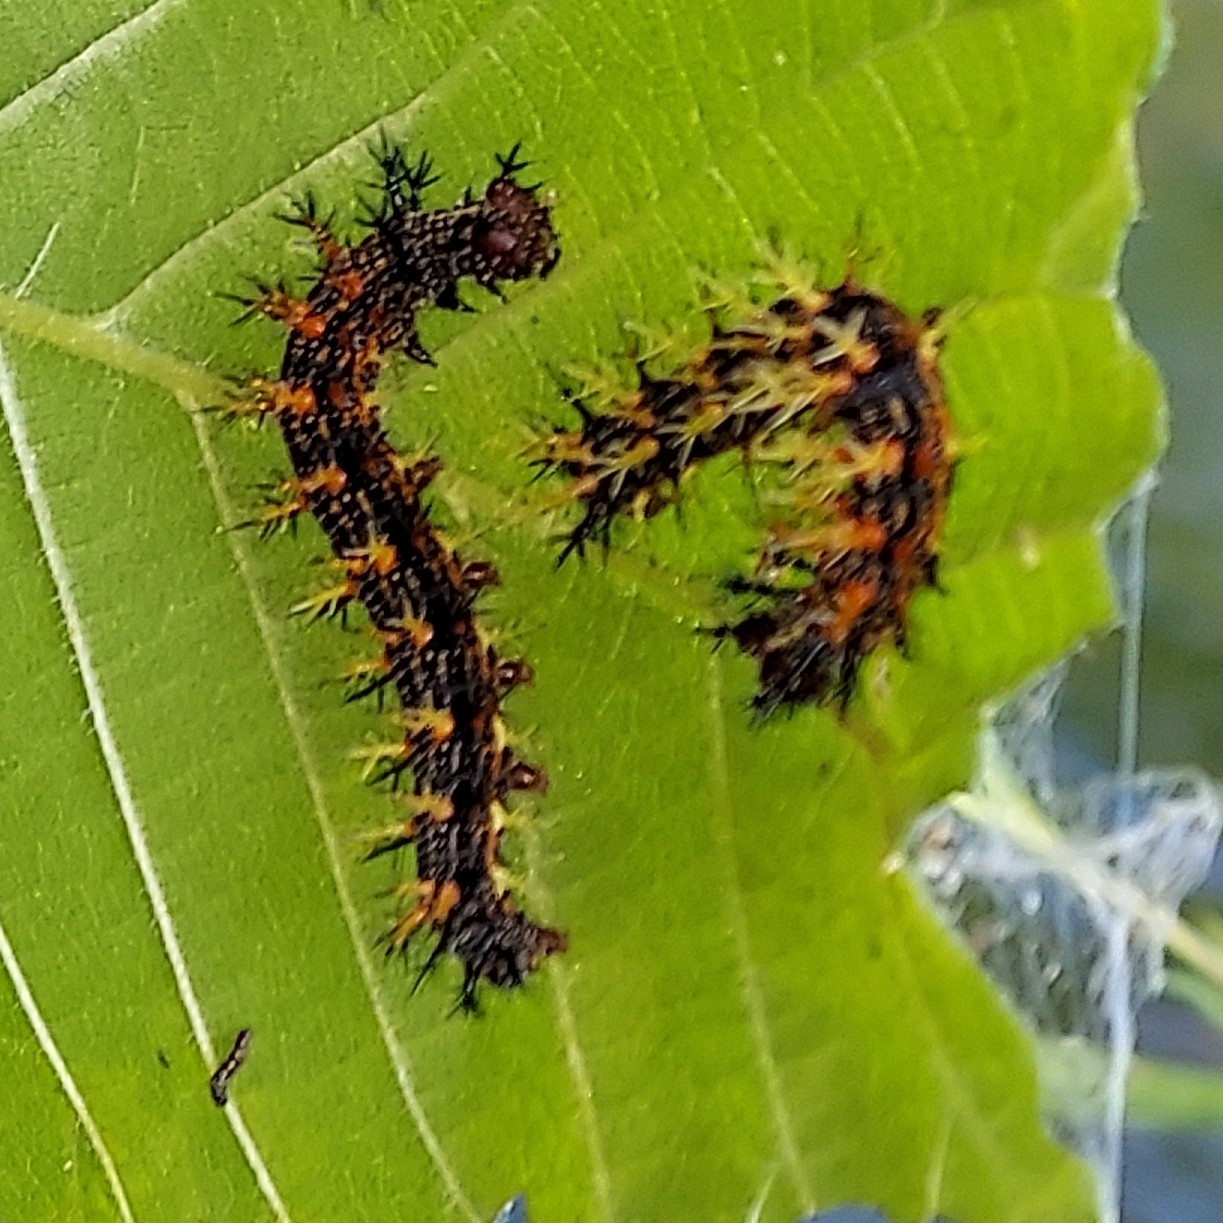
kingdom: Animalia
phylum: Arthropoda
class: Insecta
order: Lepidoptera
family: Nymphalidae
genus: Polygonia
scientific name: Polygonia interrogationis
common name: Question mark
